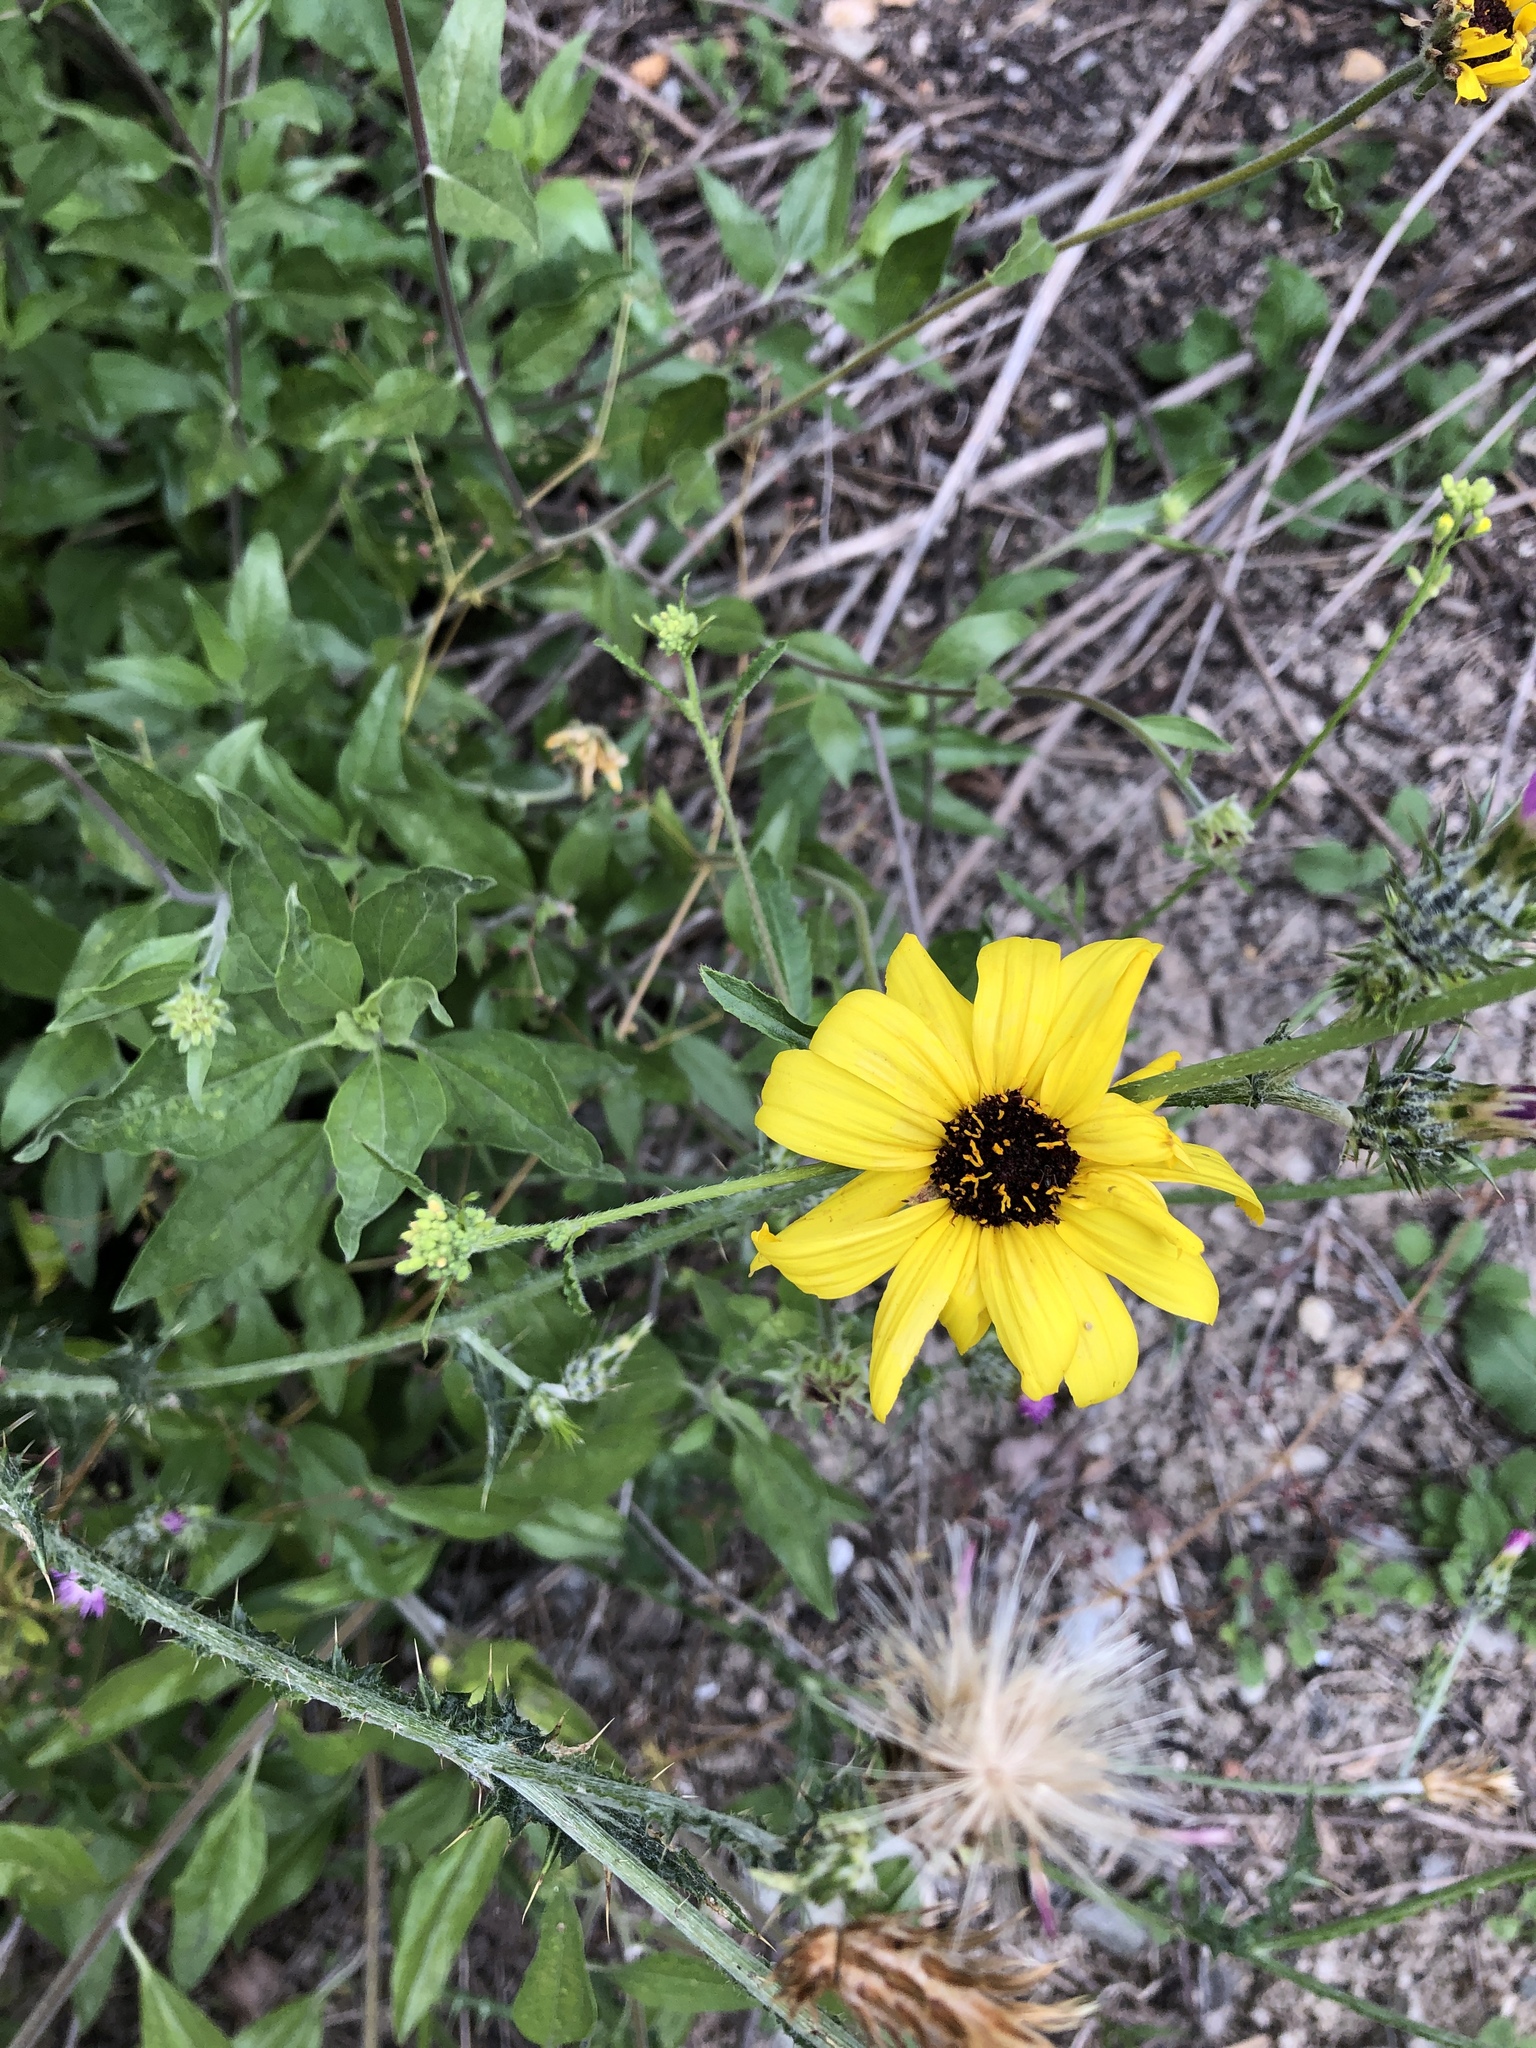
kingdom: Plantae
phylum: Tracheophyta
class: Magnoliopsida
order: Asterales
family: Asteraceae
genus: Encelia
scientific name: Encelia californica
